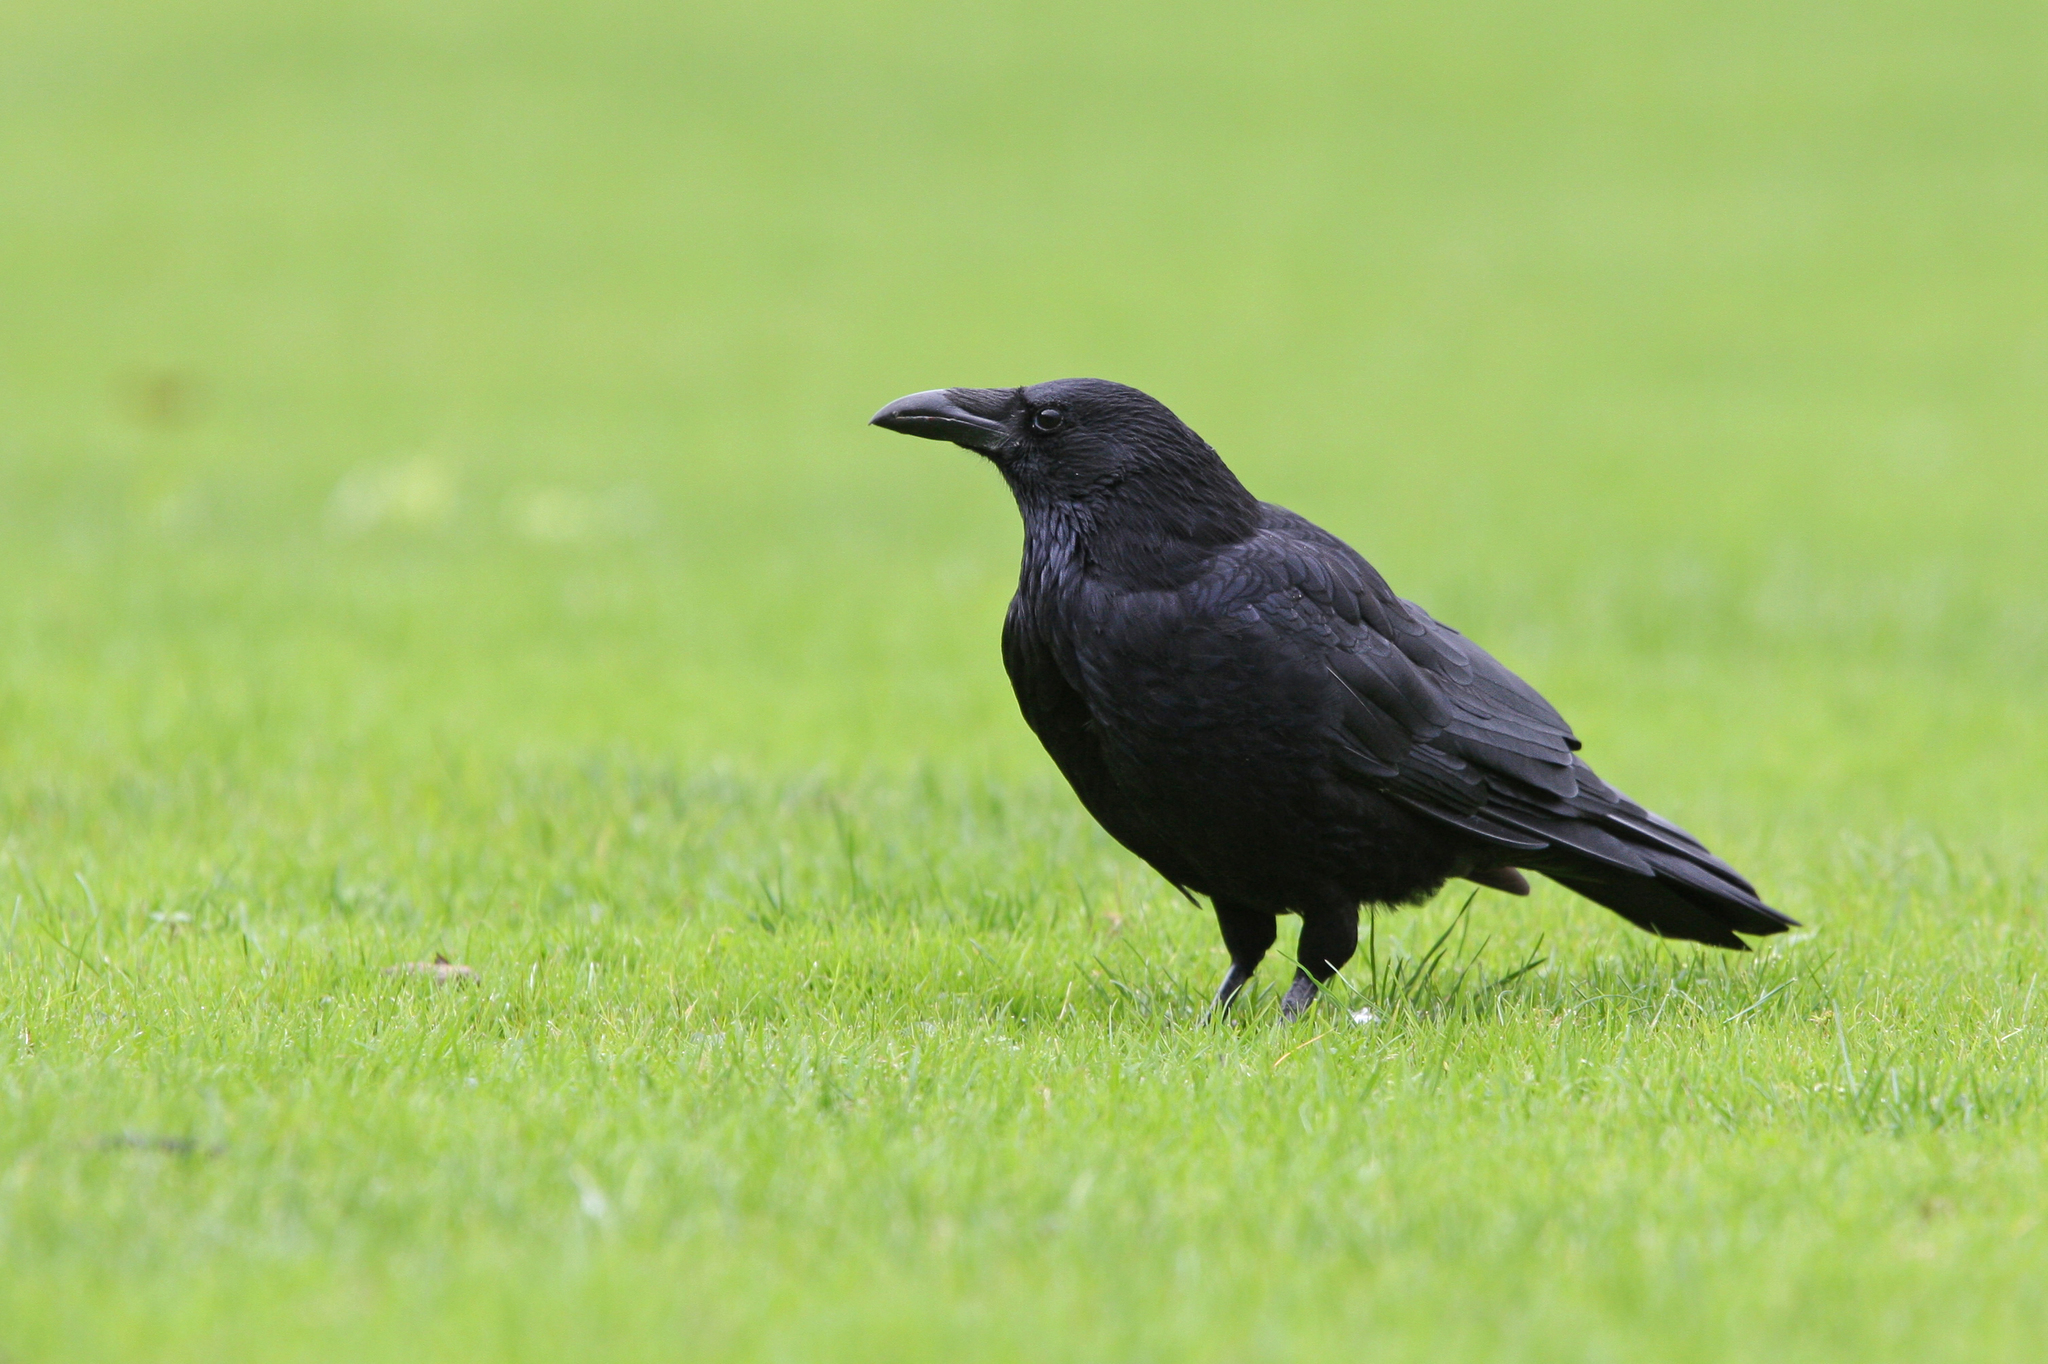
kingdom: Animalia
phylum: Chordata
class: Aves
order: Passeriformes
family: Corvidae
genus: Corvus
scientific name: Corvus corone
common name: Carrion crow
